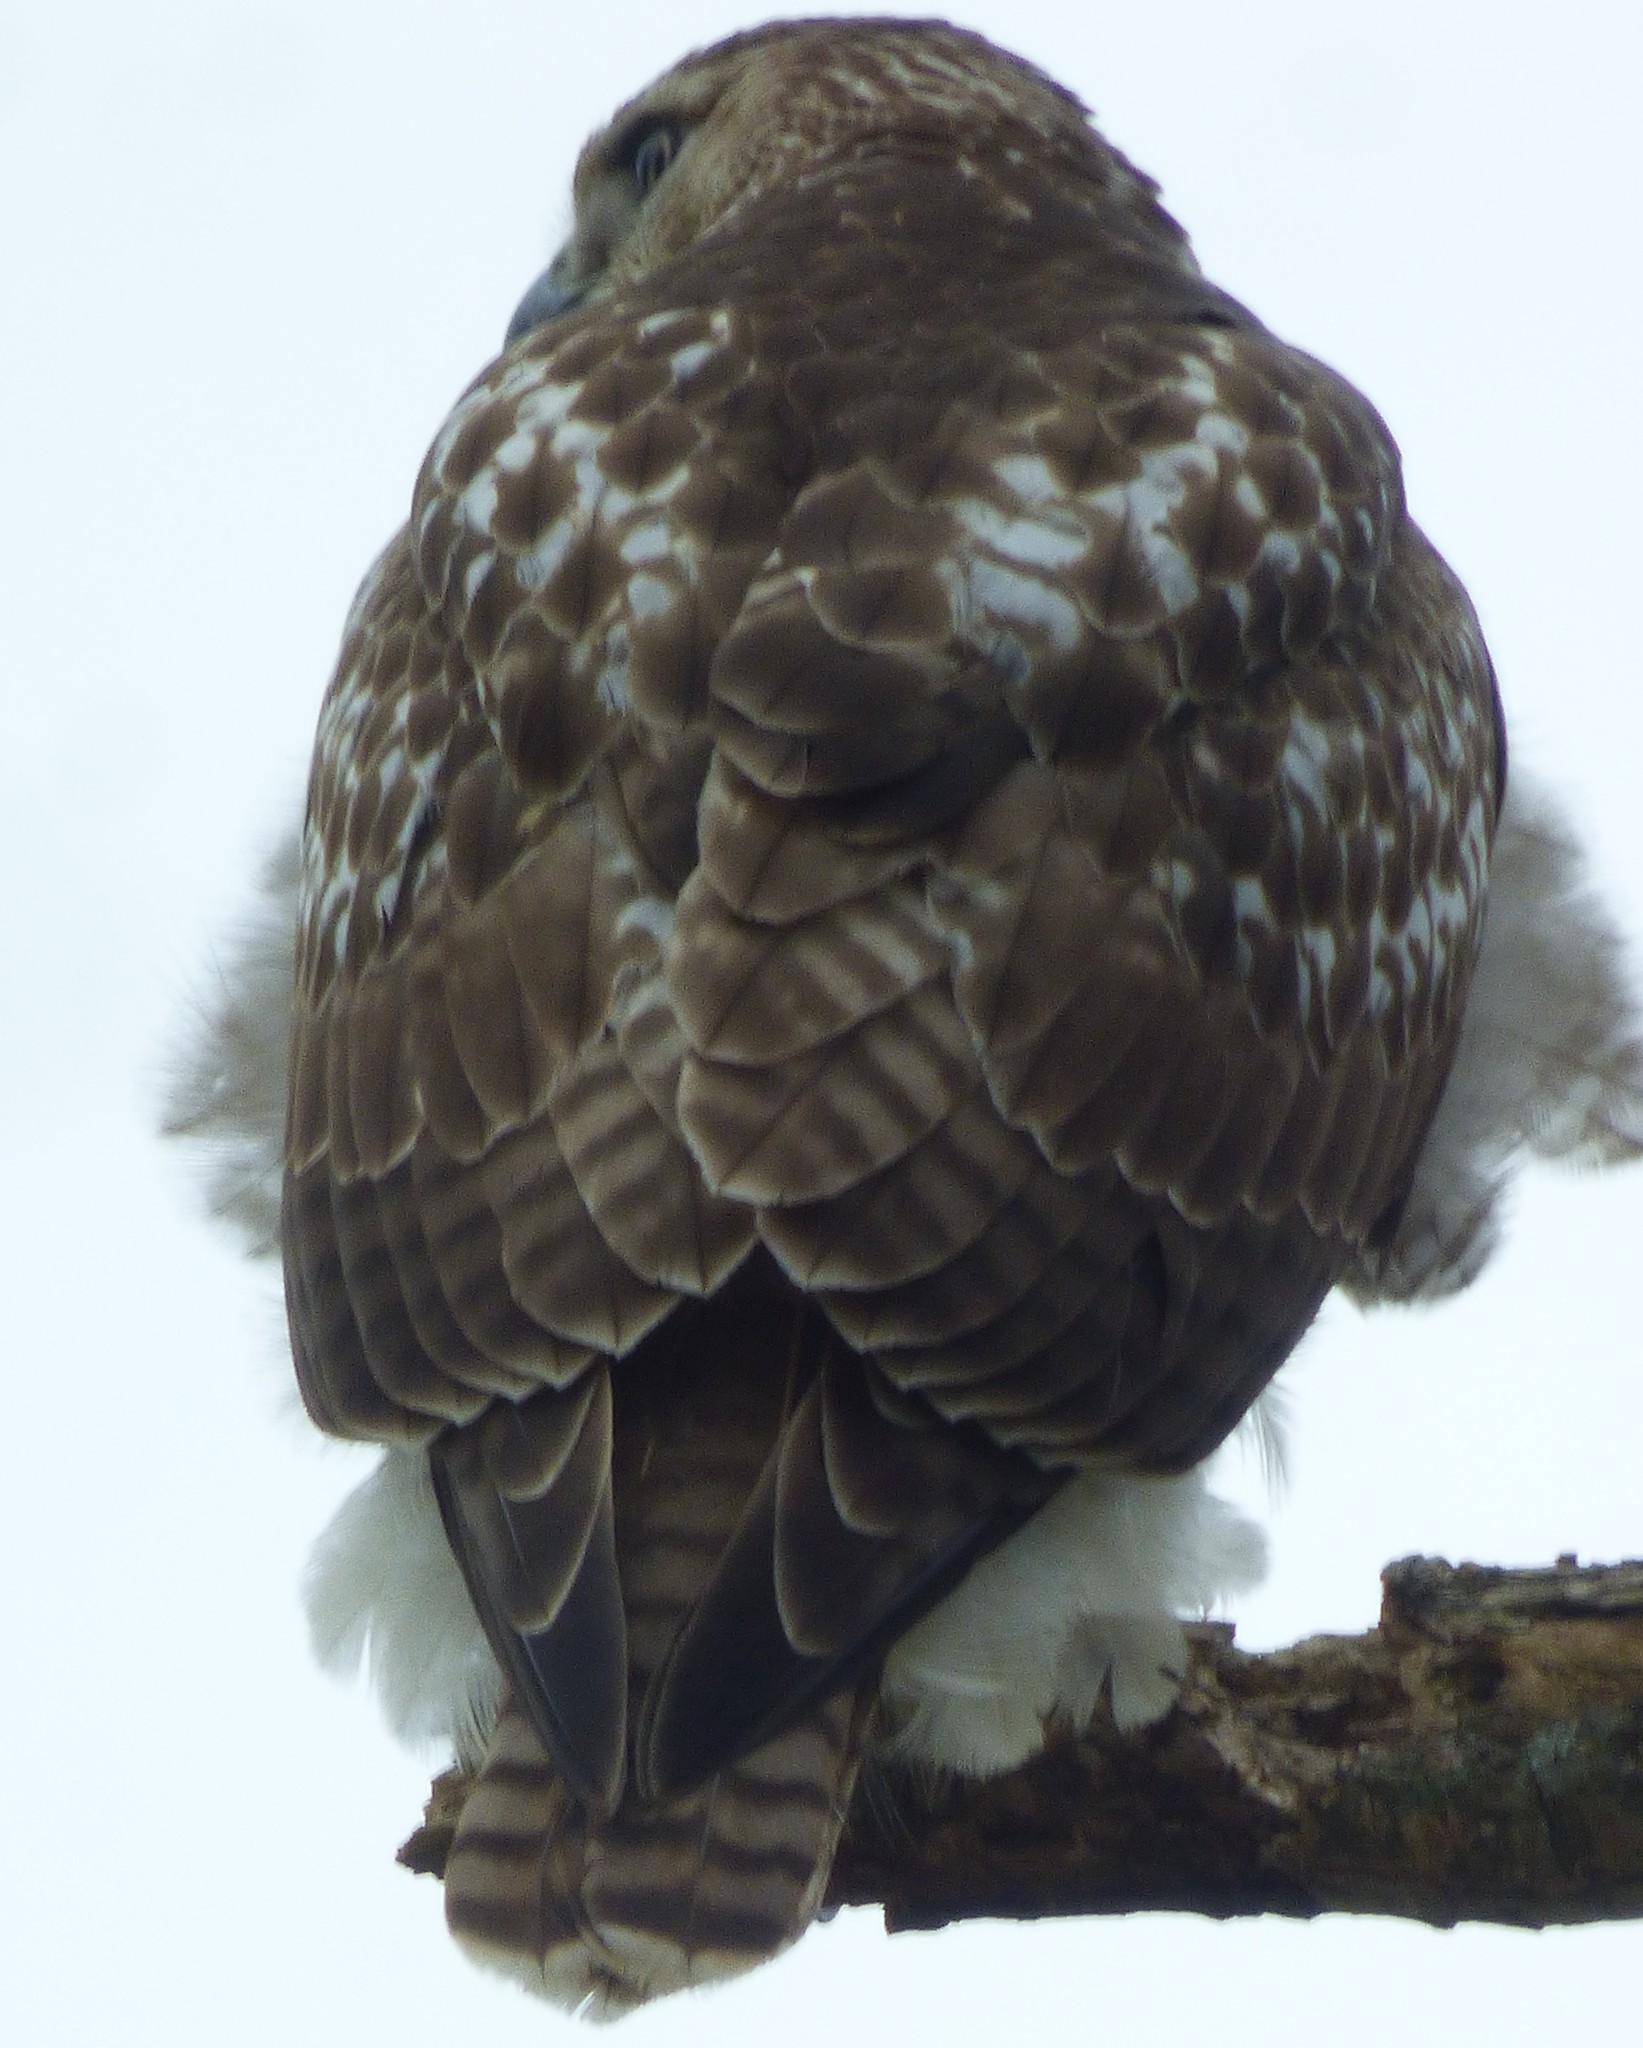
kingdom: Animalia
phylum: Chordata
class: Aves
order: Accipitriformes
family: Accipitridae
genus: Buteo
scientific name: Buteo jamaicensis
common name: Red-tailed hawk
